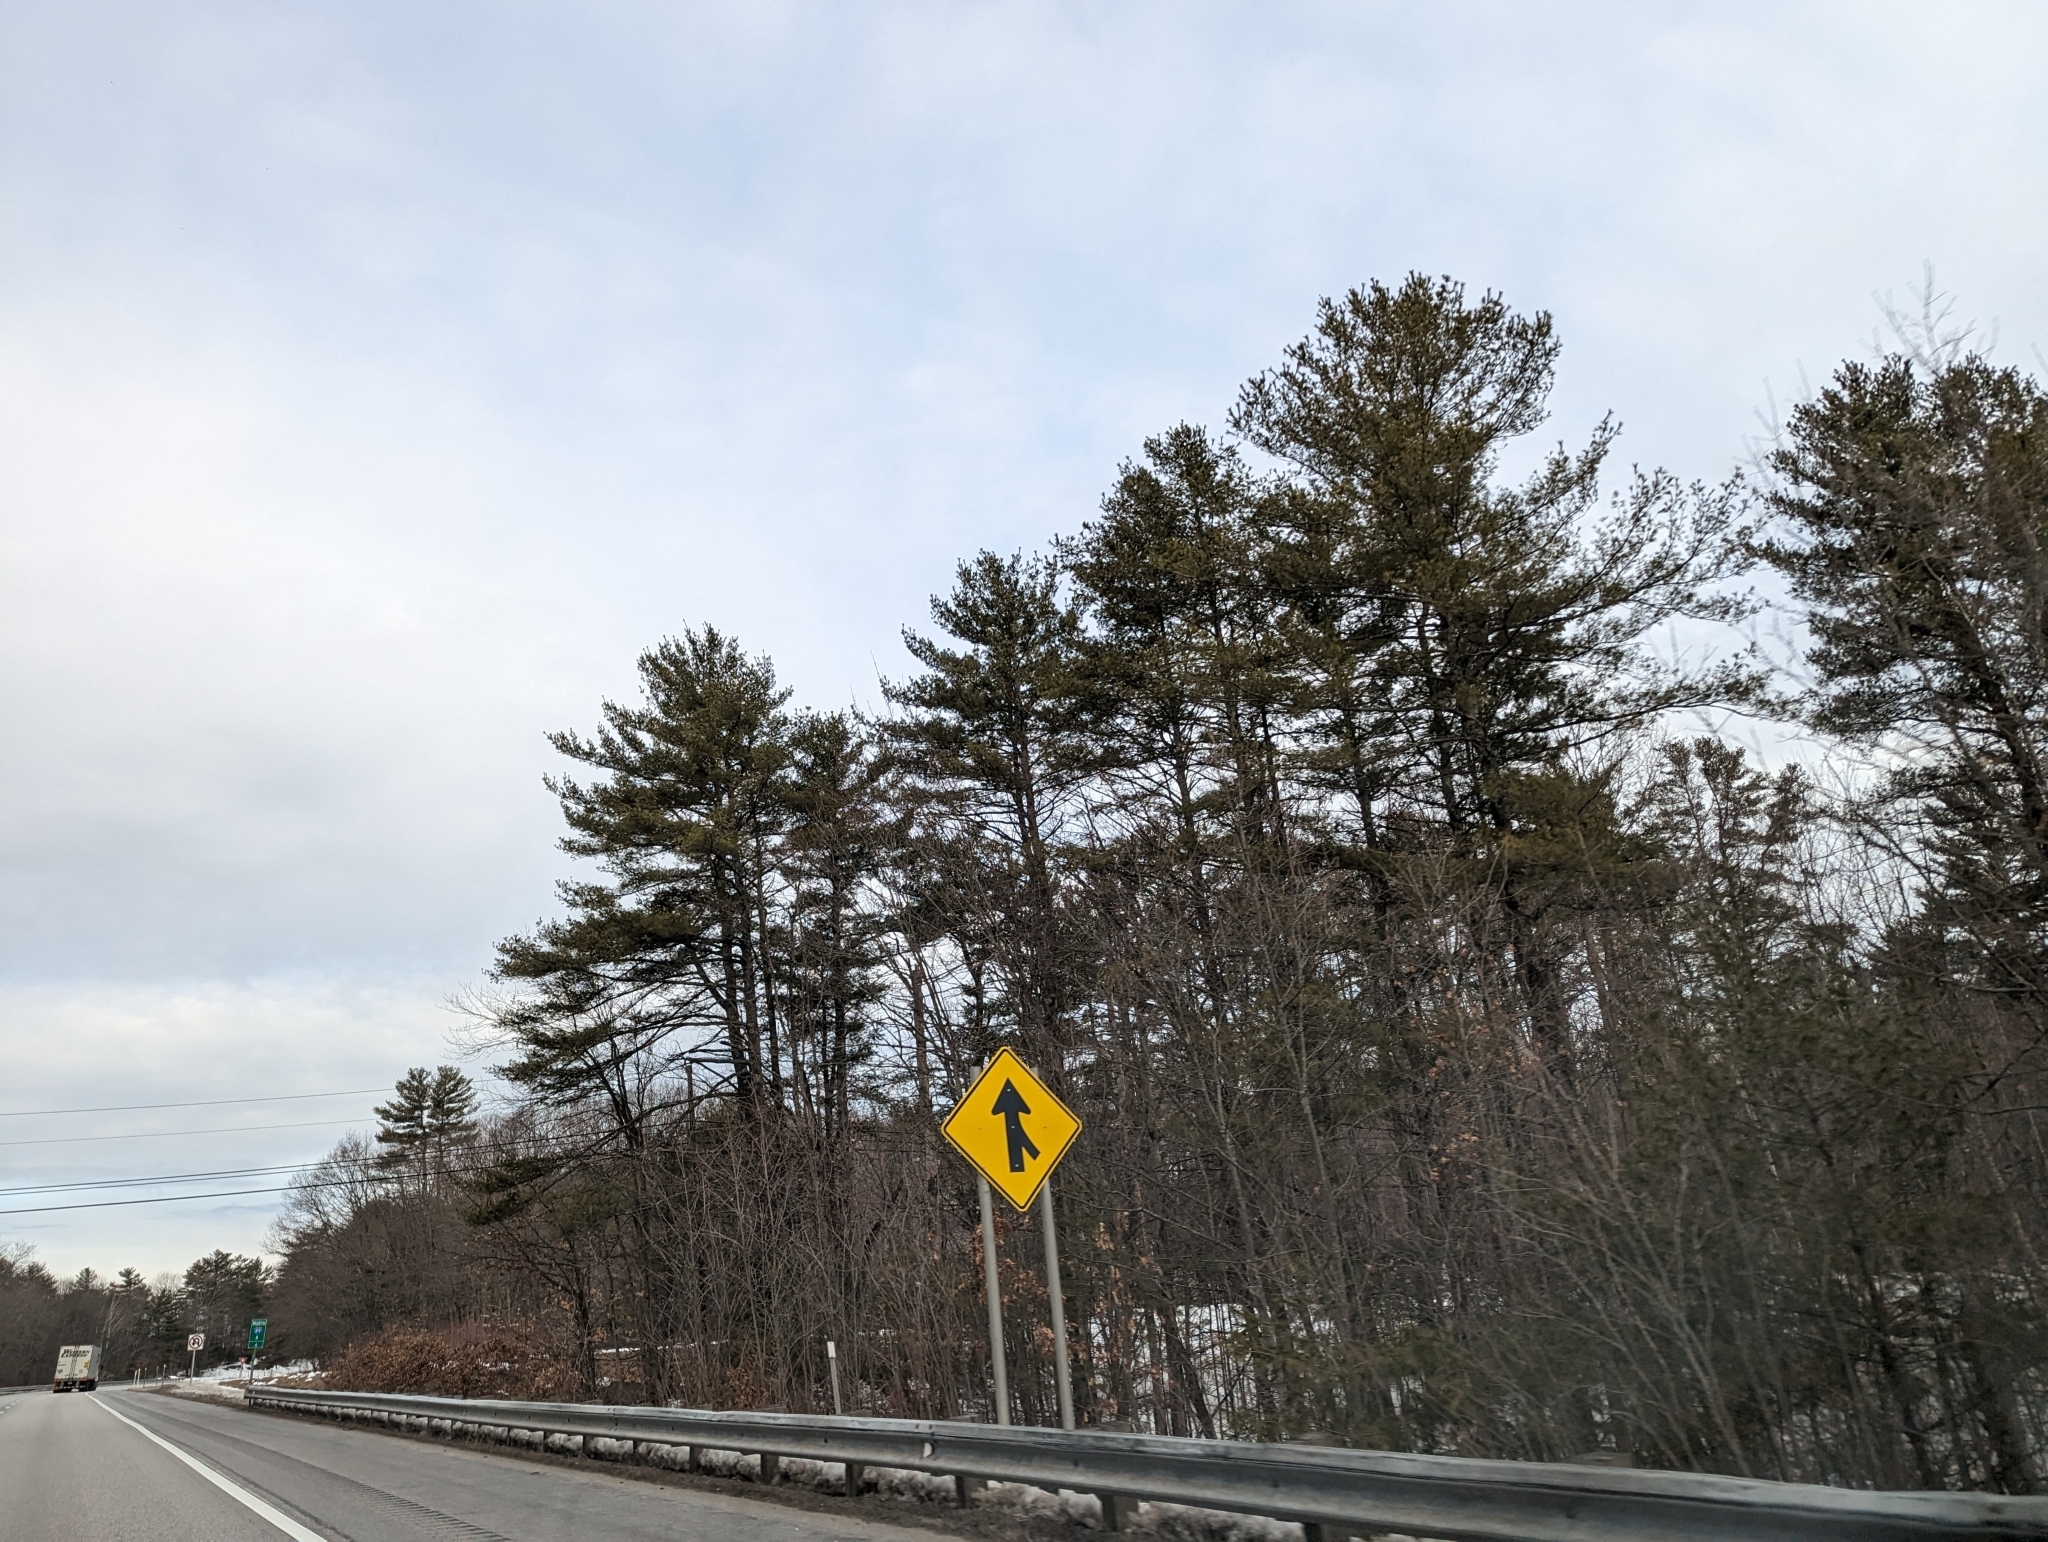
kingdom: Plantae
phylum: Tracheophyta
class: Pinopsida
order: Pinales
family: Pinaceae
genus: Pinus
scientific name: Pinus strobus
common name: Weymouth pine
